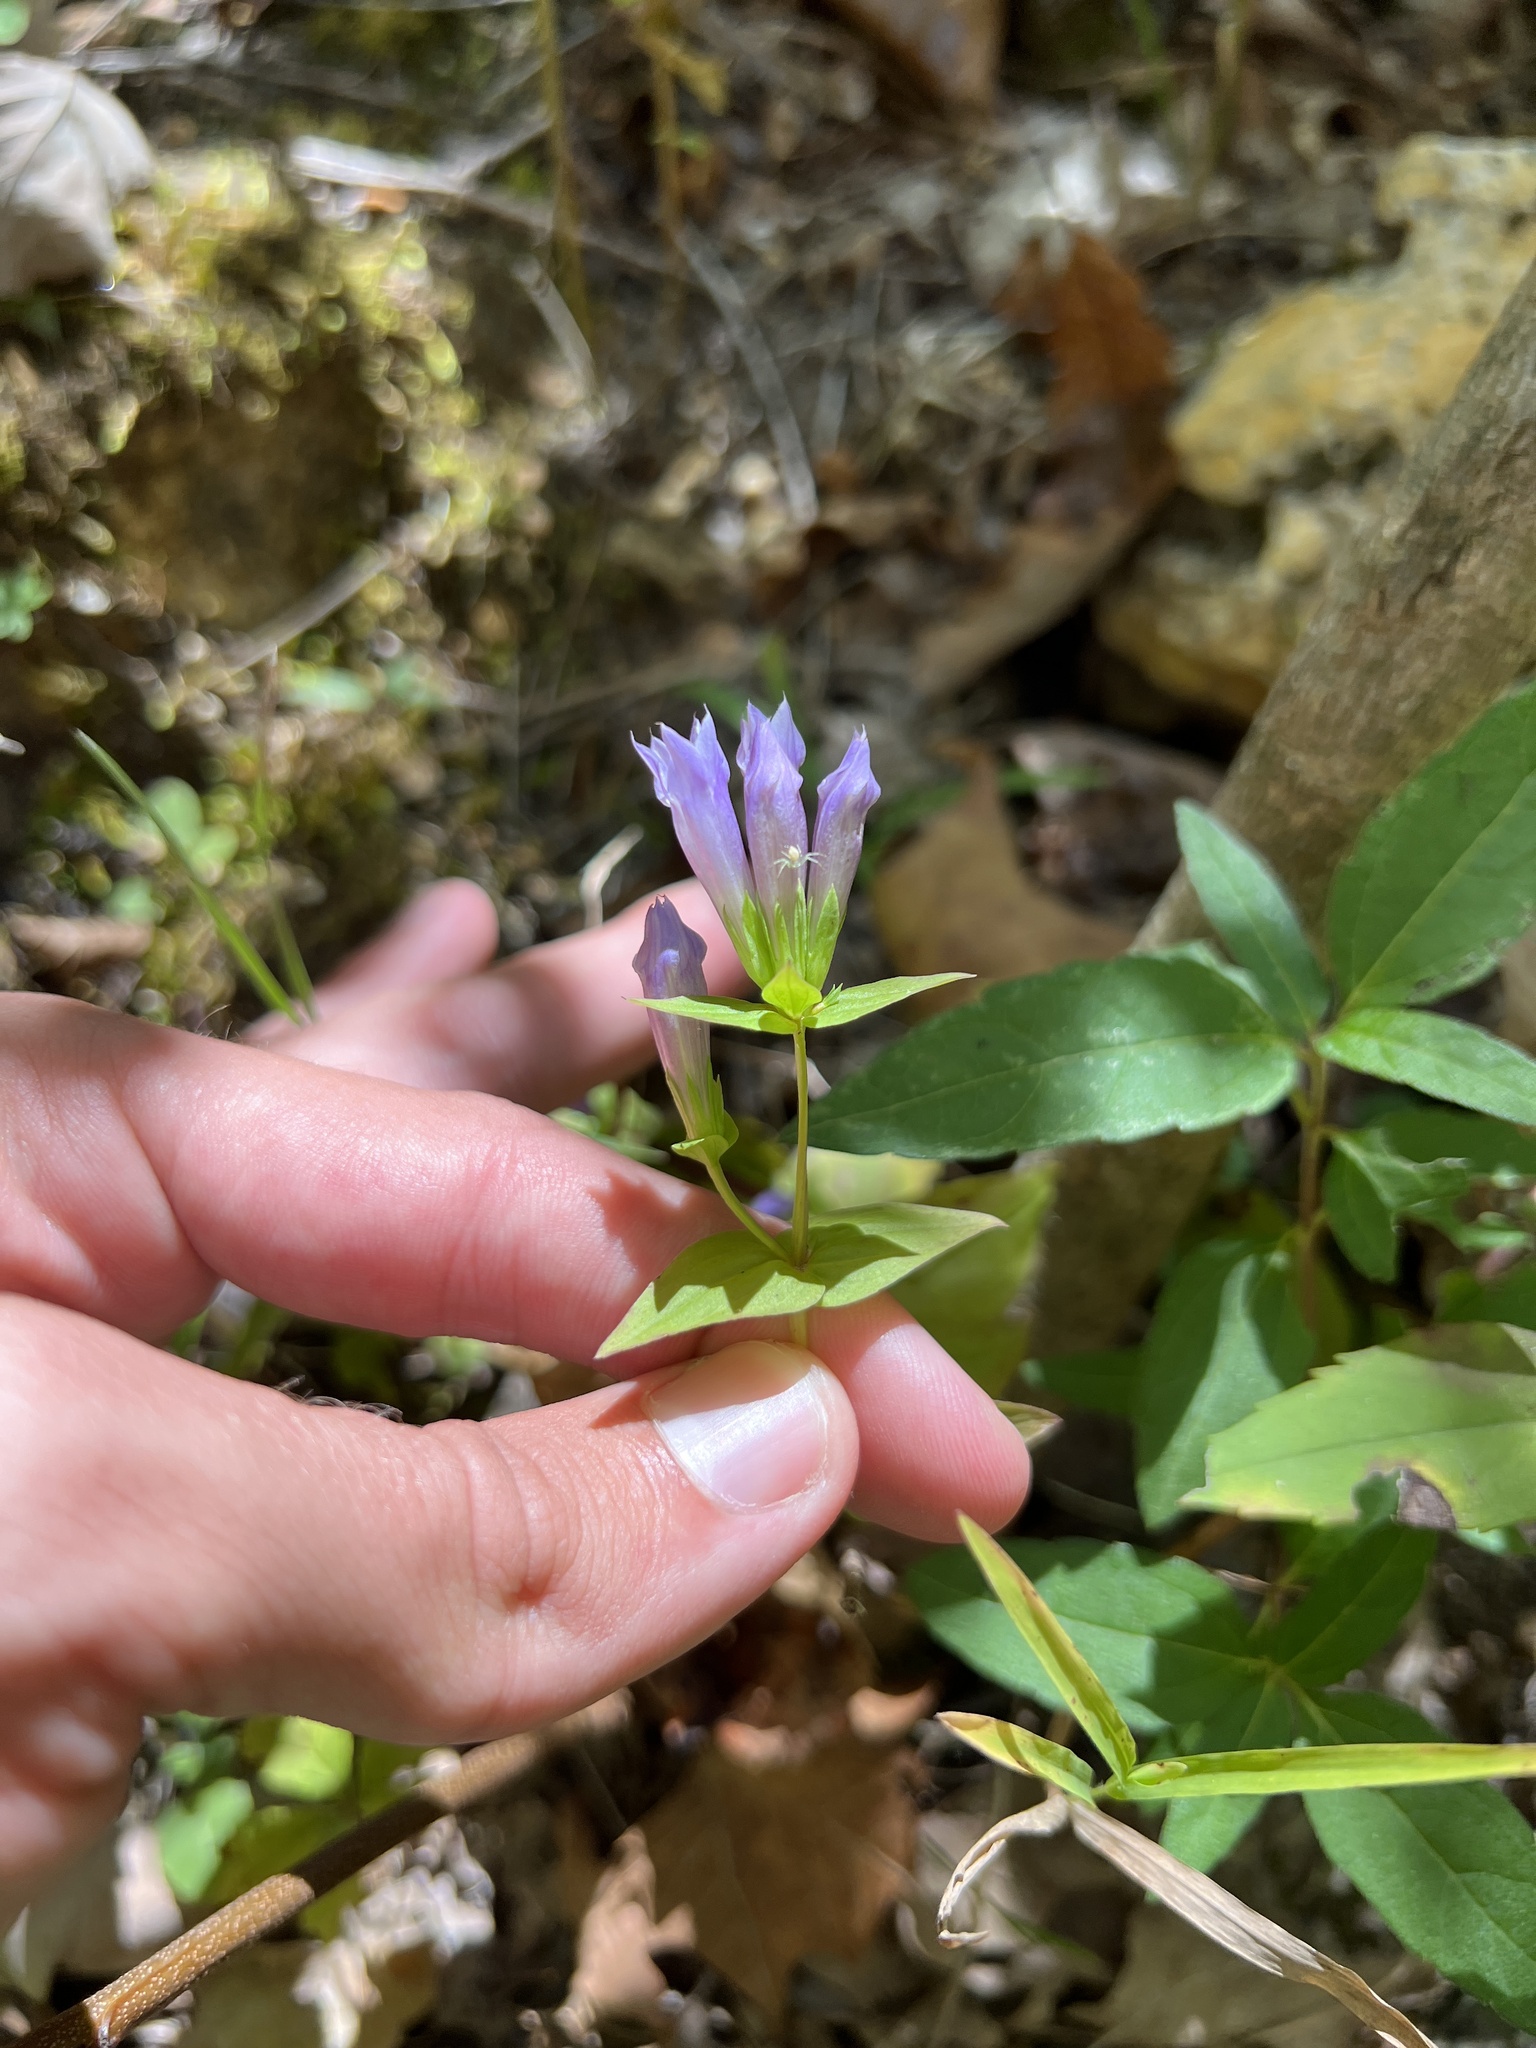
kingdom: Plantae
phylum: Tracheophyta
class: Magnoliopsida
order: Gentianales
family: Gentianaceae
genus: Gentianella
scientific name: Gentianella quinquefolia
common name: Agueweed
